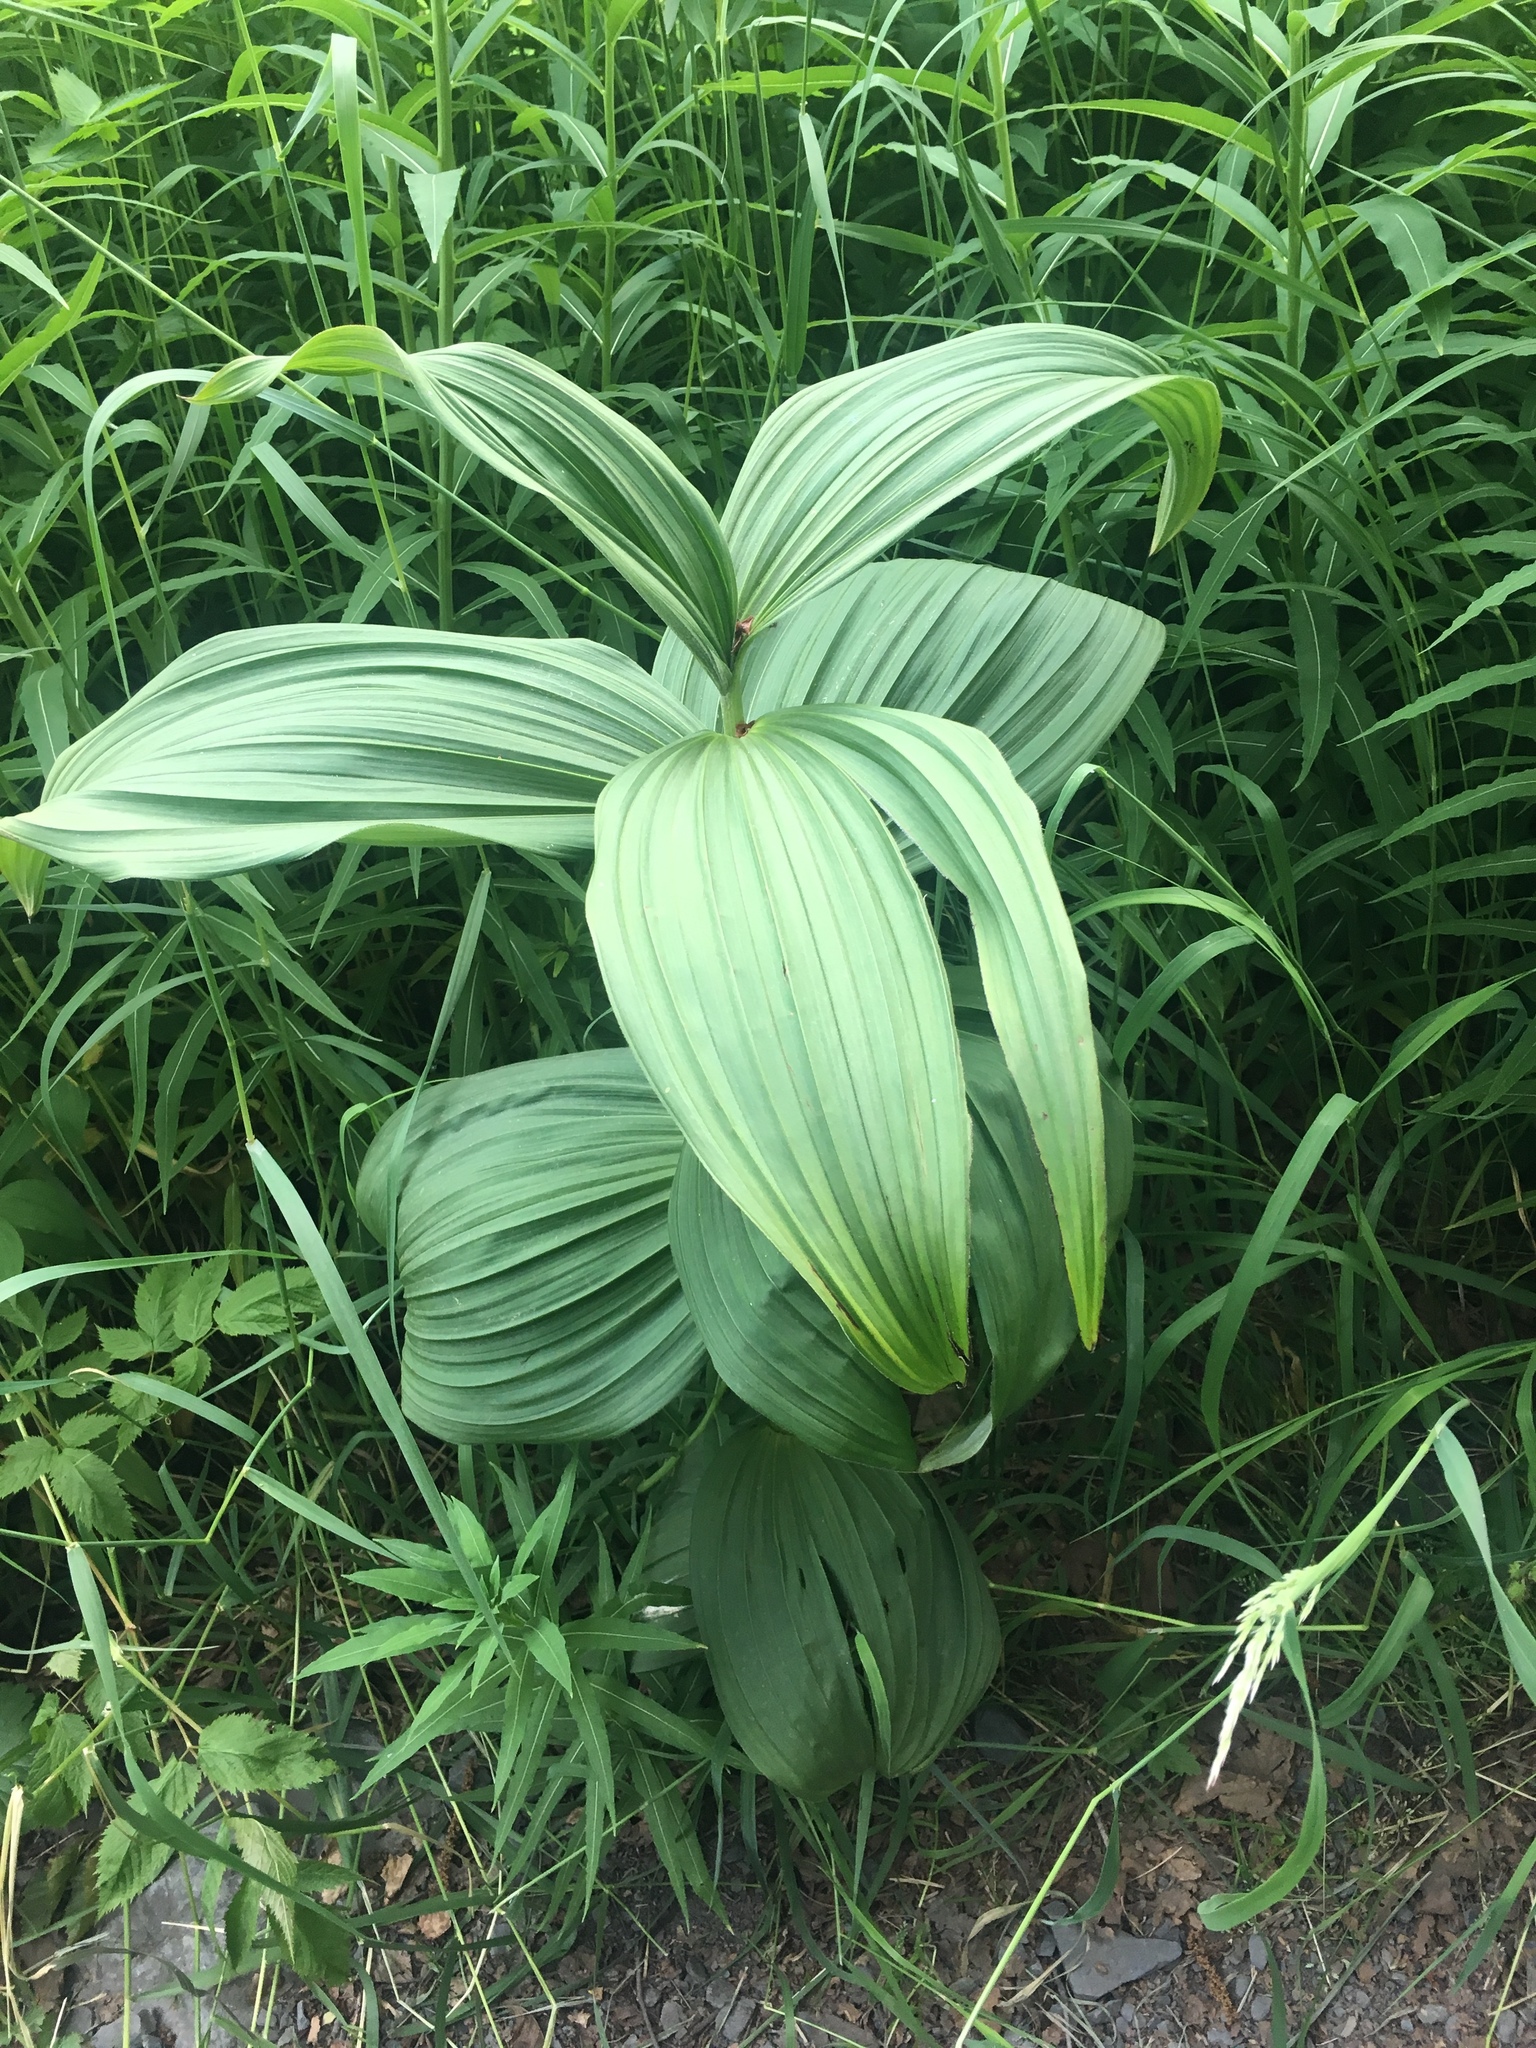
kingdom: Plantae
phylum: Tracheophyta
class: Liliopsida
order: Liliales
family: Melanthiaceae
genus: Veratrum
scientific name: Veratrum viride
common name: American false hellebore
